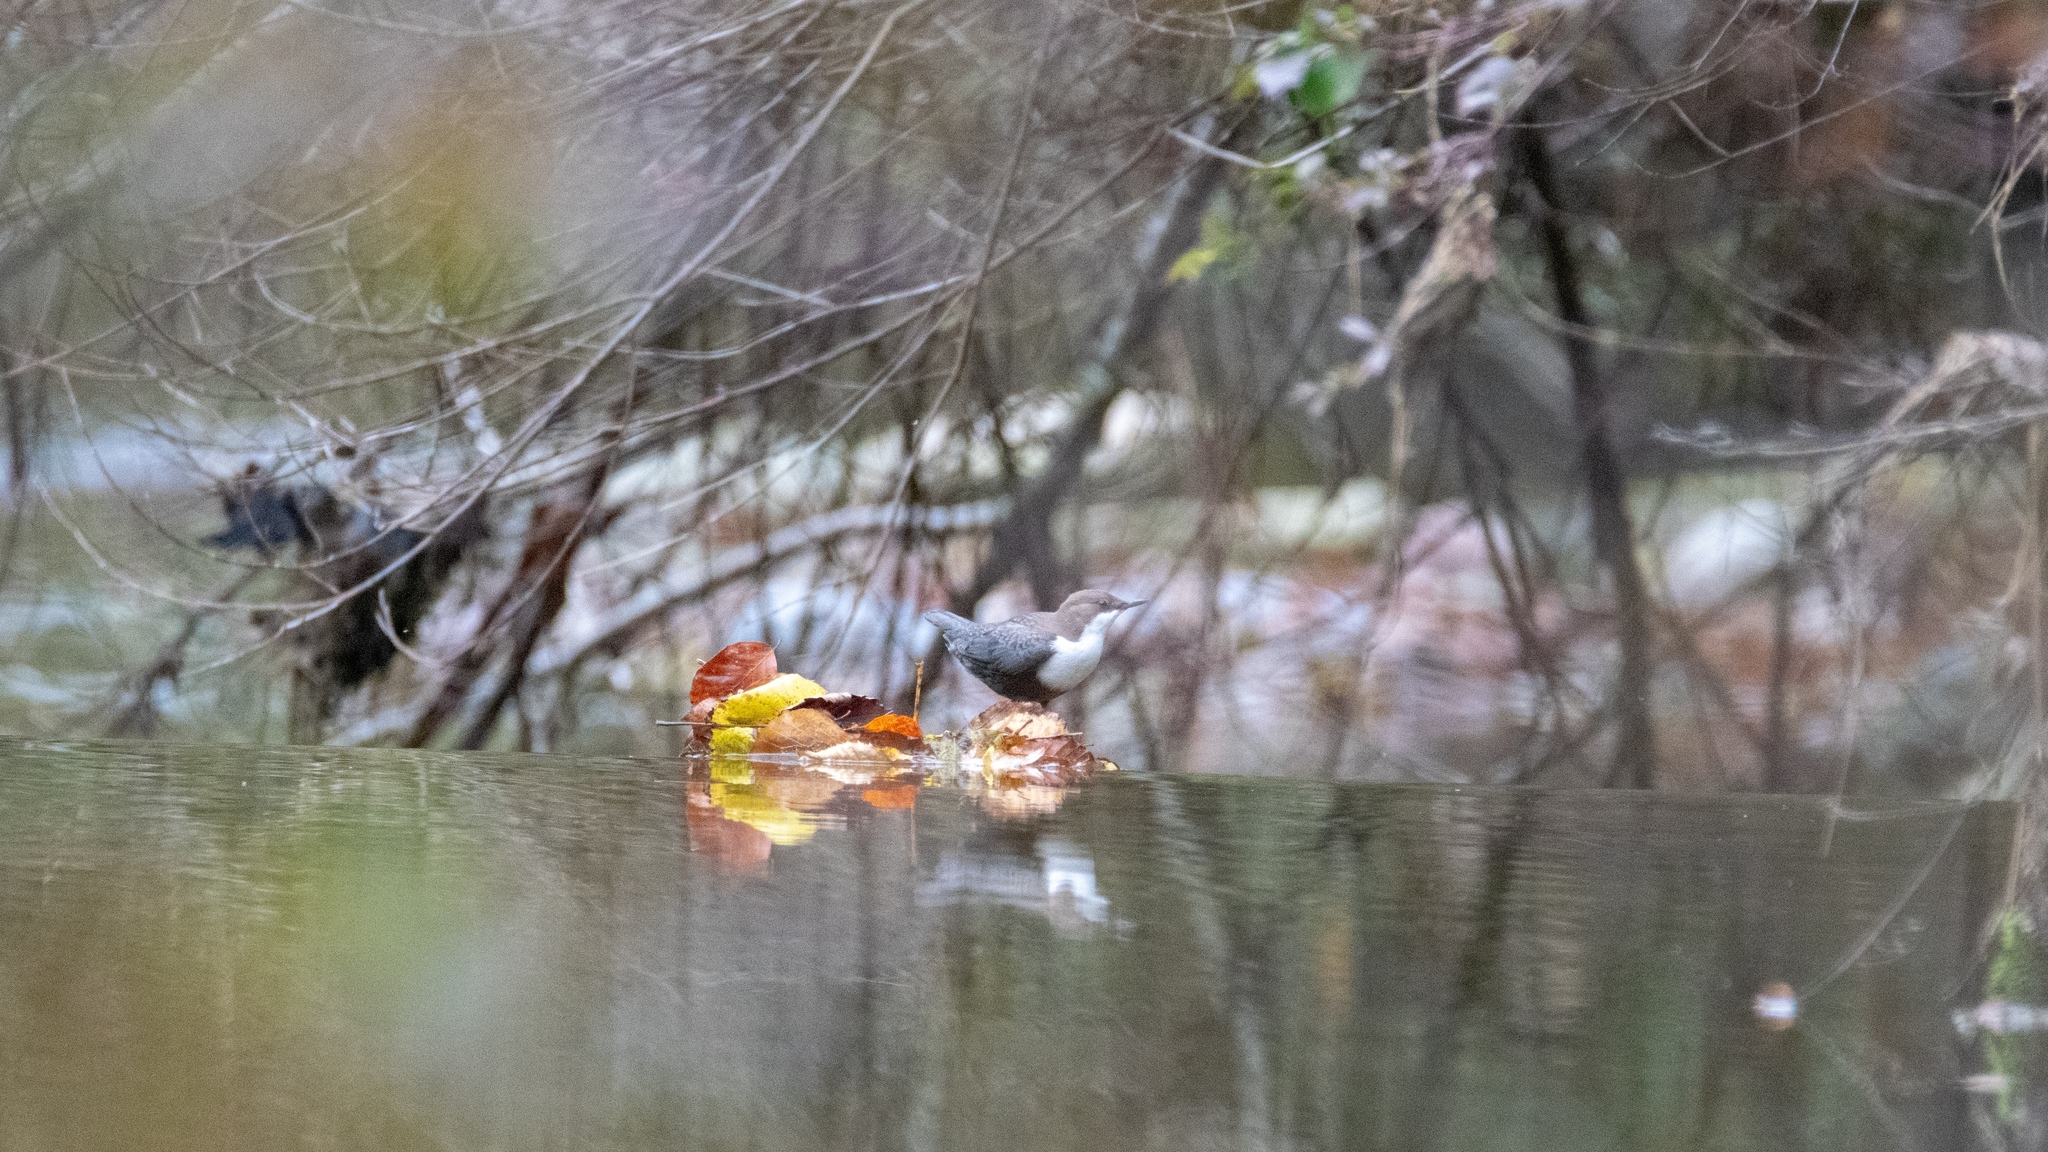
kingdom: Animalia
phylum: Chordata
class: Aves
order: Passeriformes
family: Cinclidae
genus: Cinclus
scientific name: Cinclus cinclus
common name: White-throated dipper
